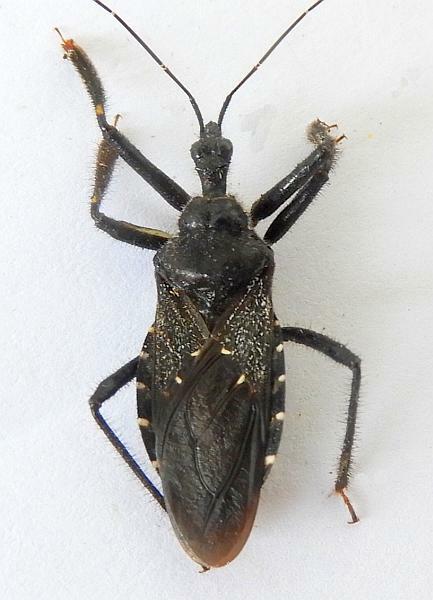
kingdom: Animalia
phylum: Arthropoda
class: Insecta
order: Hemiptera
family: Reduviidae
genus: Apiomerus
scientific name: Apiomerus longispinis
